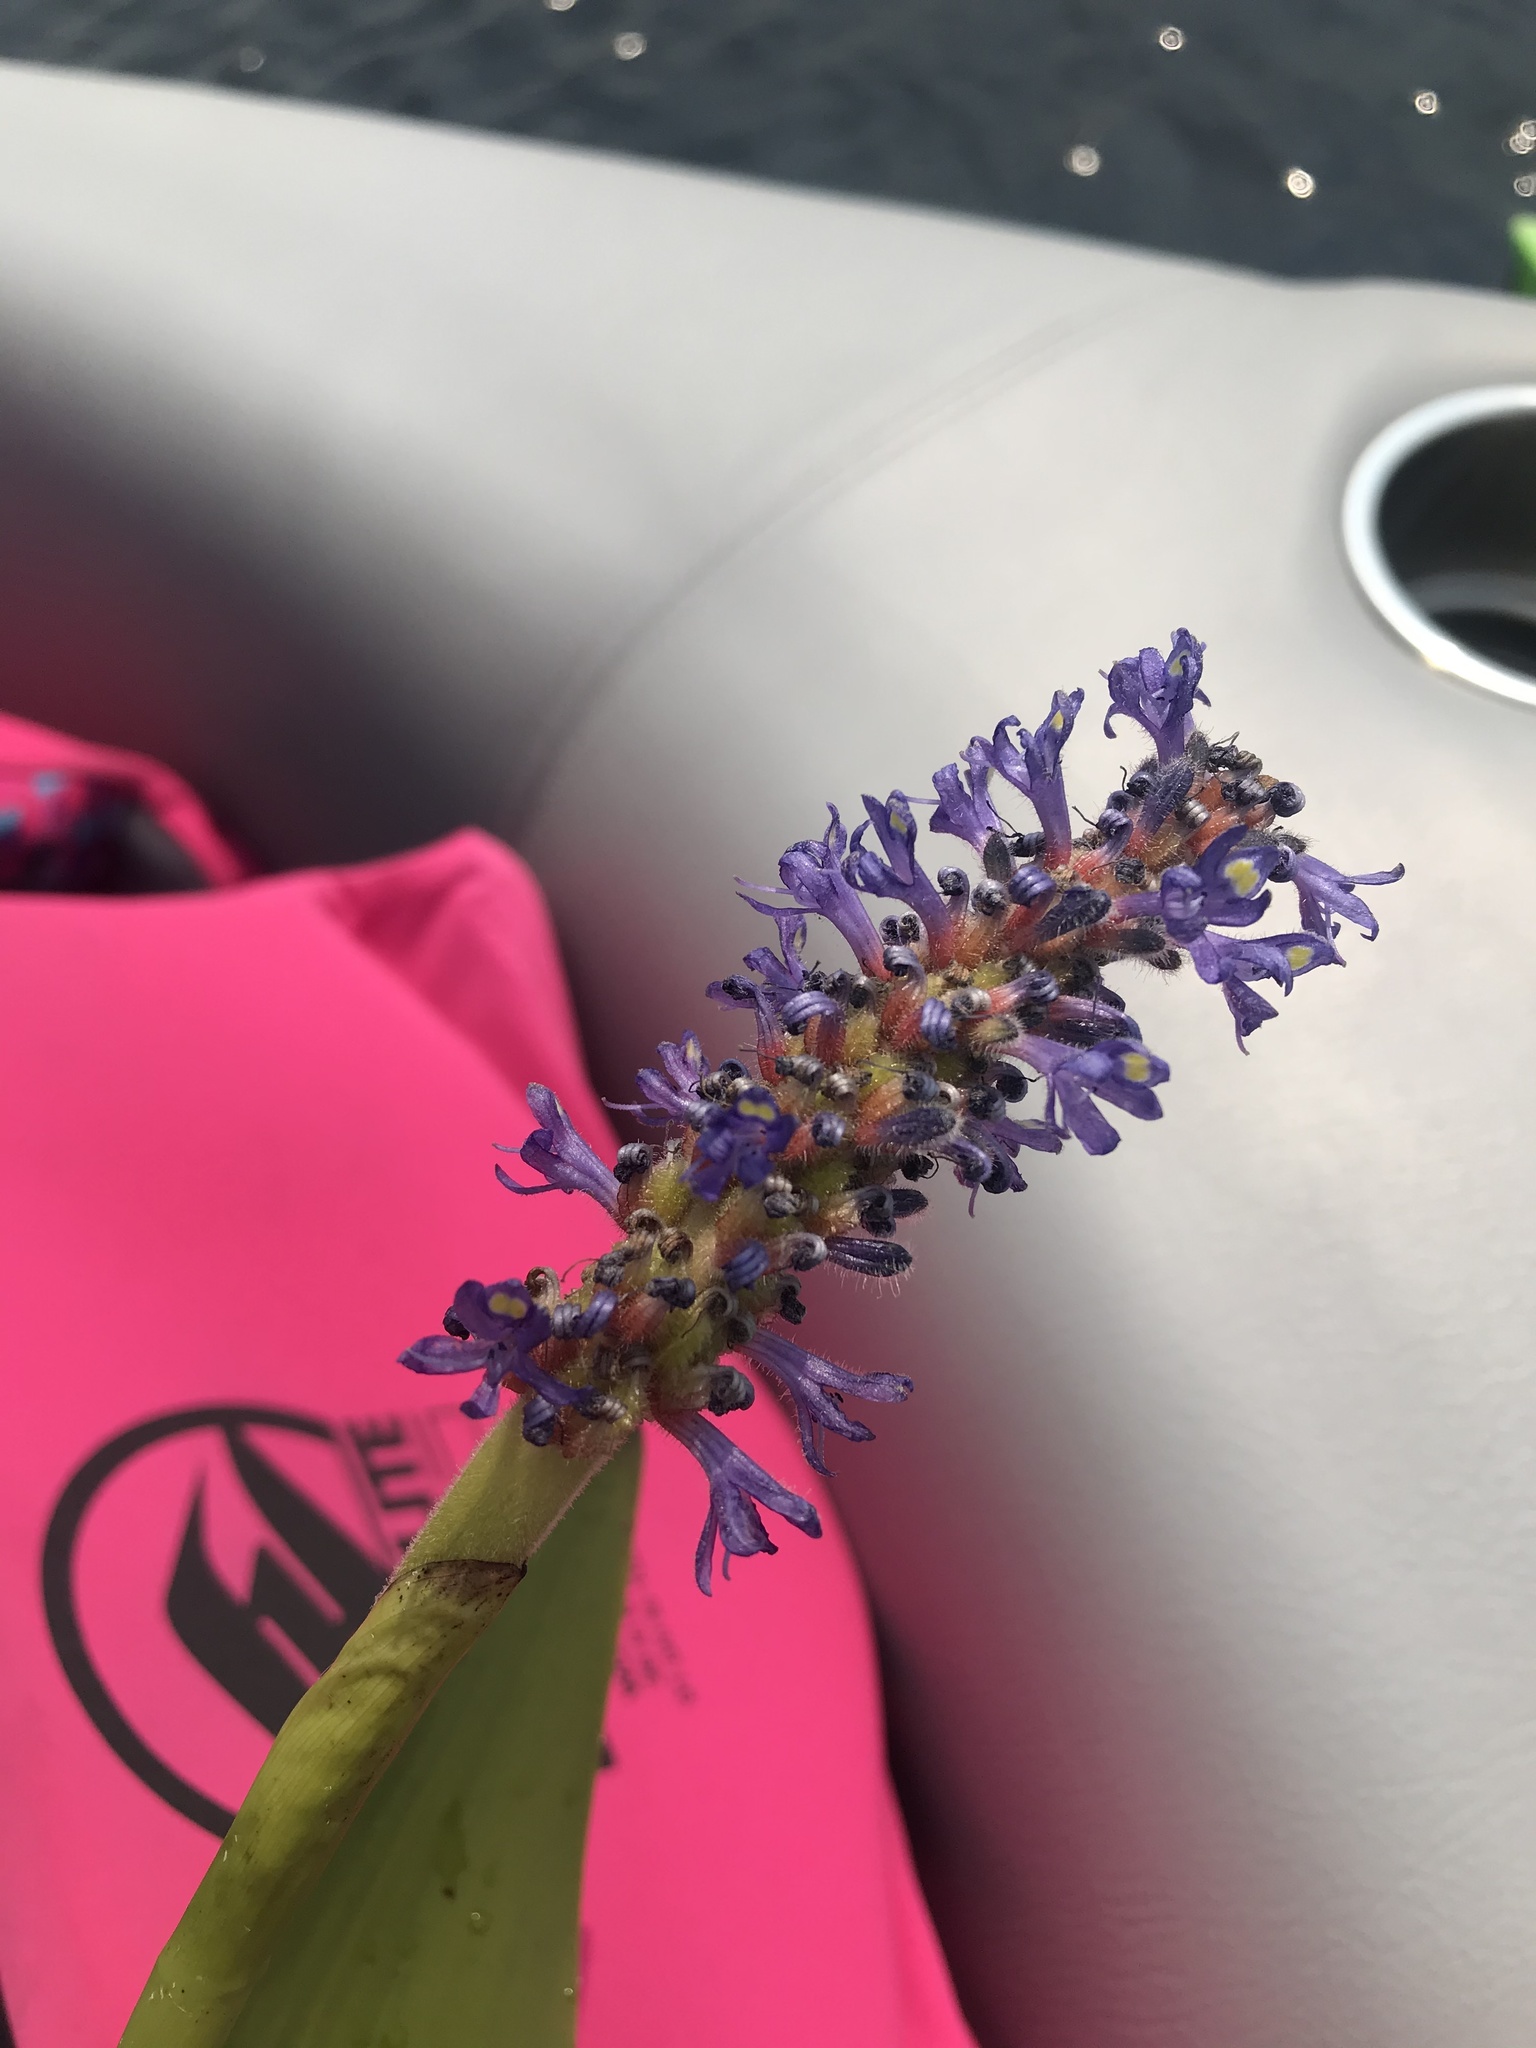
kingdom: Plantae
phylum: Tracheophyta
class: Liliopsida
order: Commelinales
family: Pontederiaceae
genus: Pontederia
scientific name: Pontederia cordata
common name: Pickerelweed
